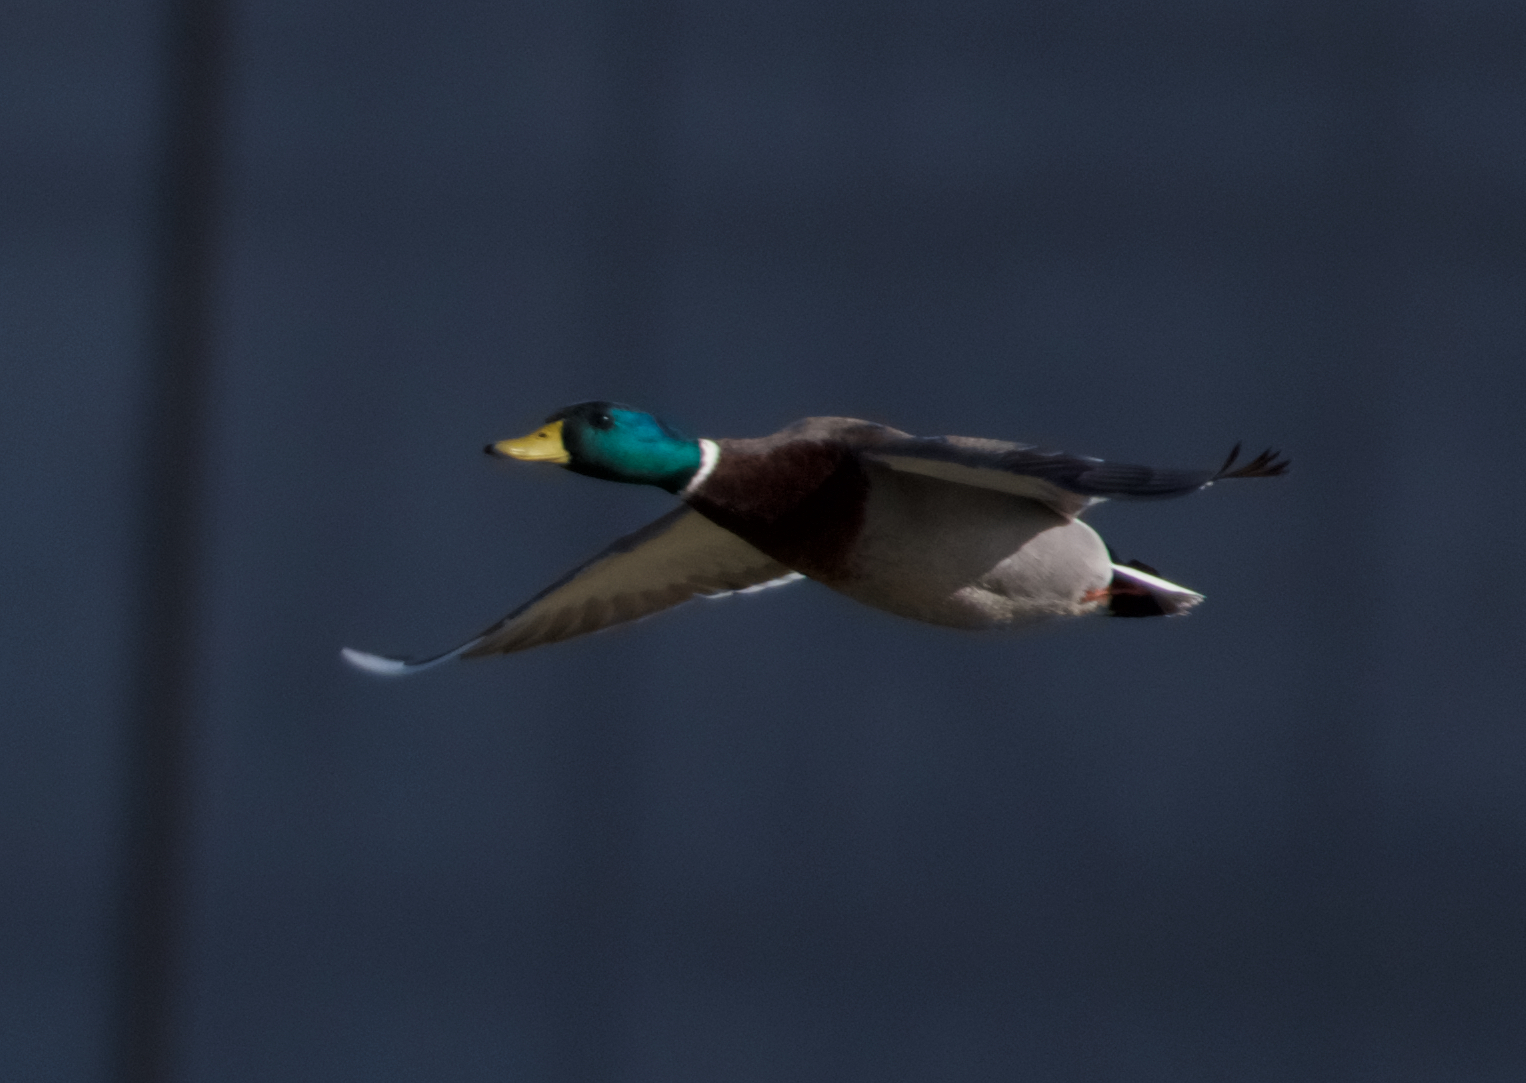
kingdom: Animalia
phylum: Chordata
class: Aves
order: Anseriformes
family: Anatidae
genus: Anas
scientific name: Anas platyrhynchos
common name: Mallard
